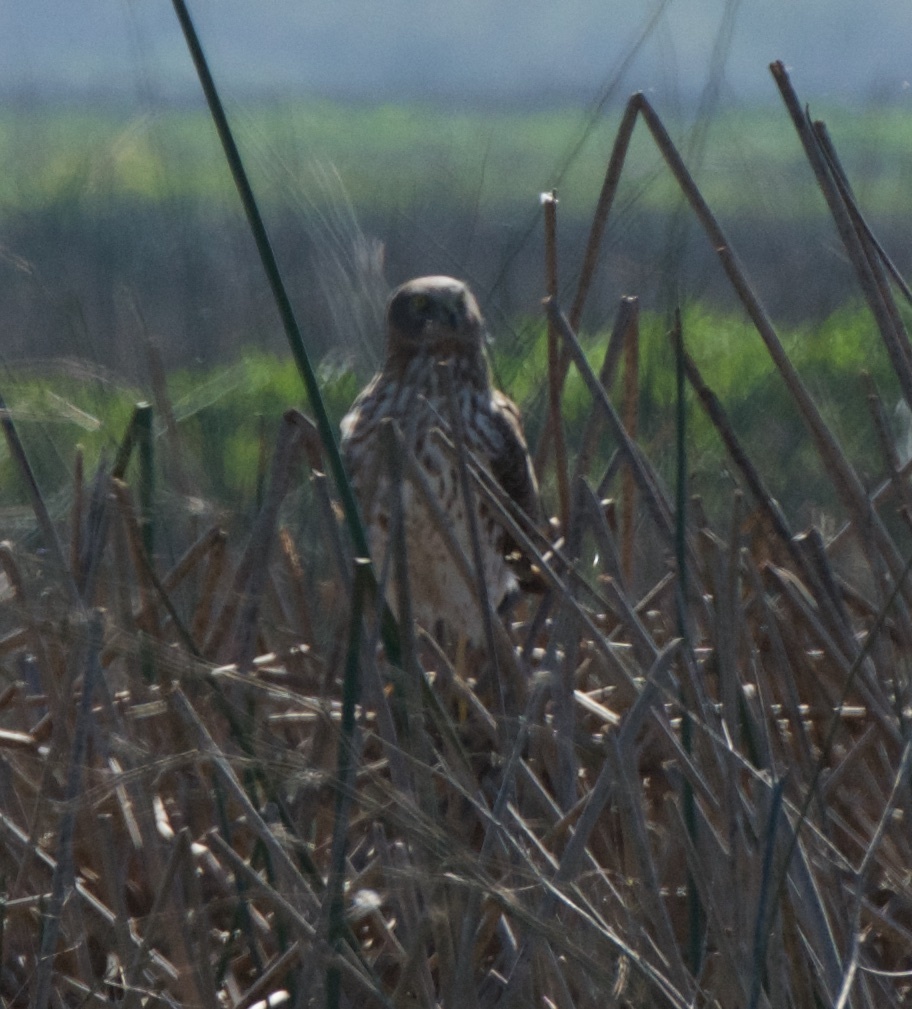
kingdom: Animalia
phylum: Chordata
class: Aves
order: Accipitriformes
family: Accipitridae
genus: Circus
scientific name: Circus cyaneus
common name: Hen harrier
